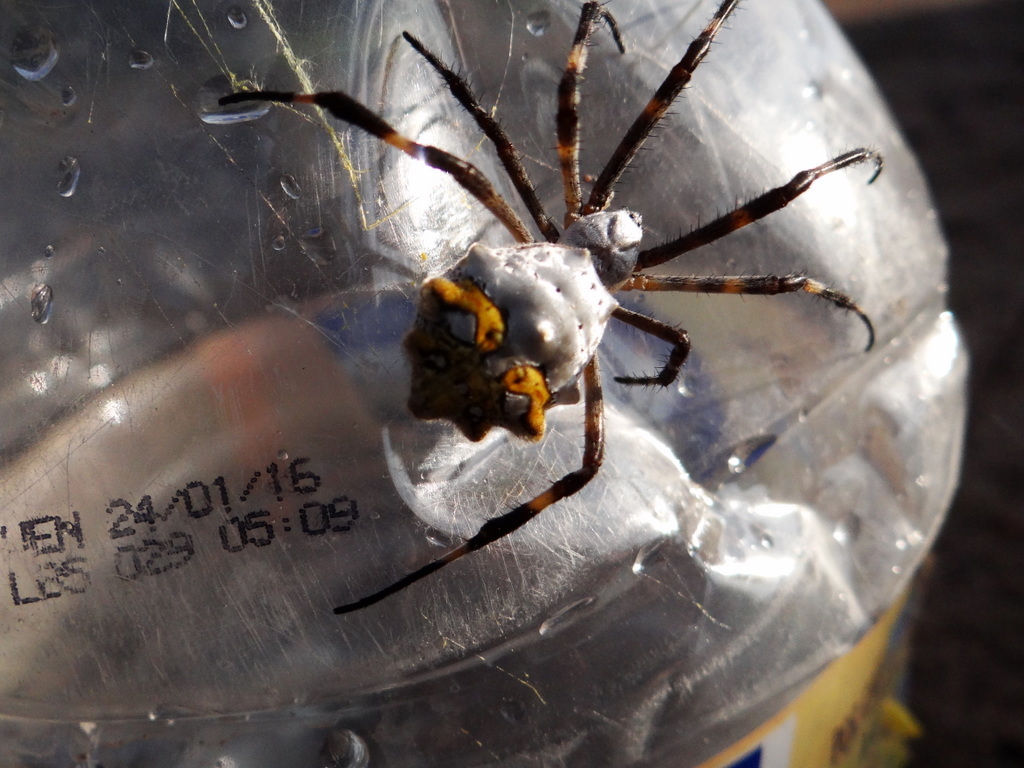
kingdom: Animalia
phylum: Arthropoda
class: Arachnida
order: Araneae
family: Araneidae
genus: Argiope
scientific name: Argiope argentata
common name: Orb weavers
